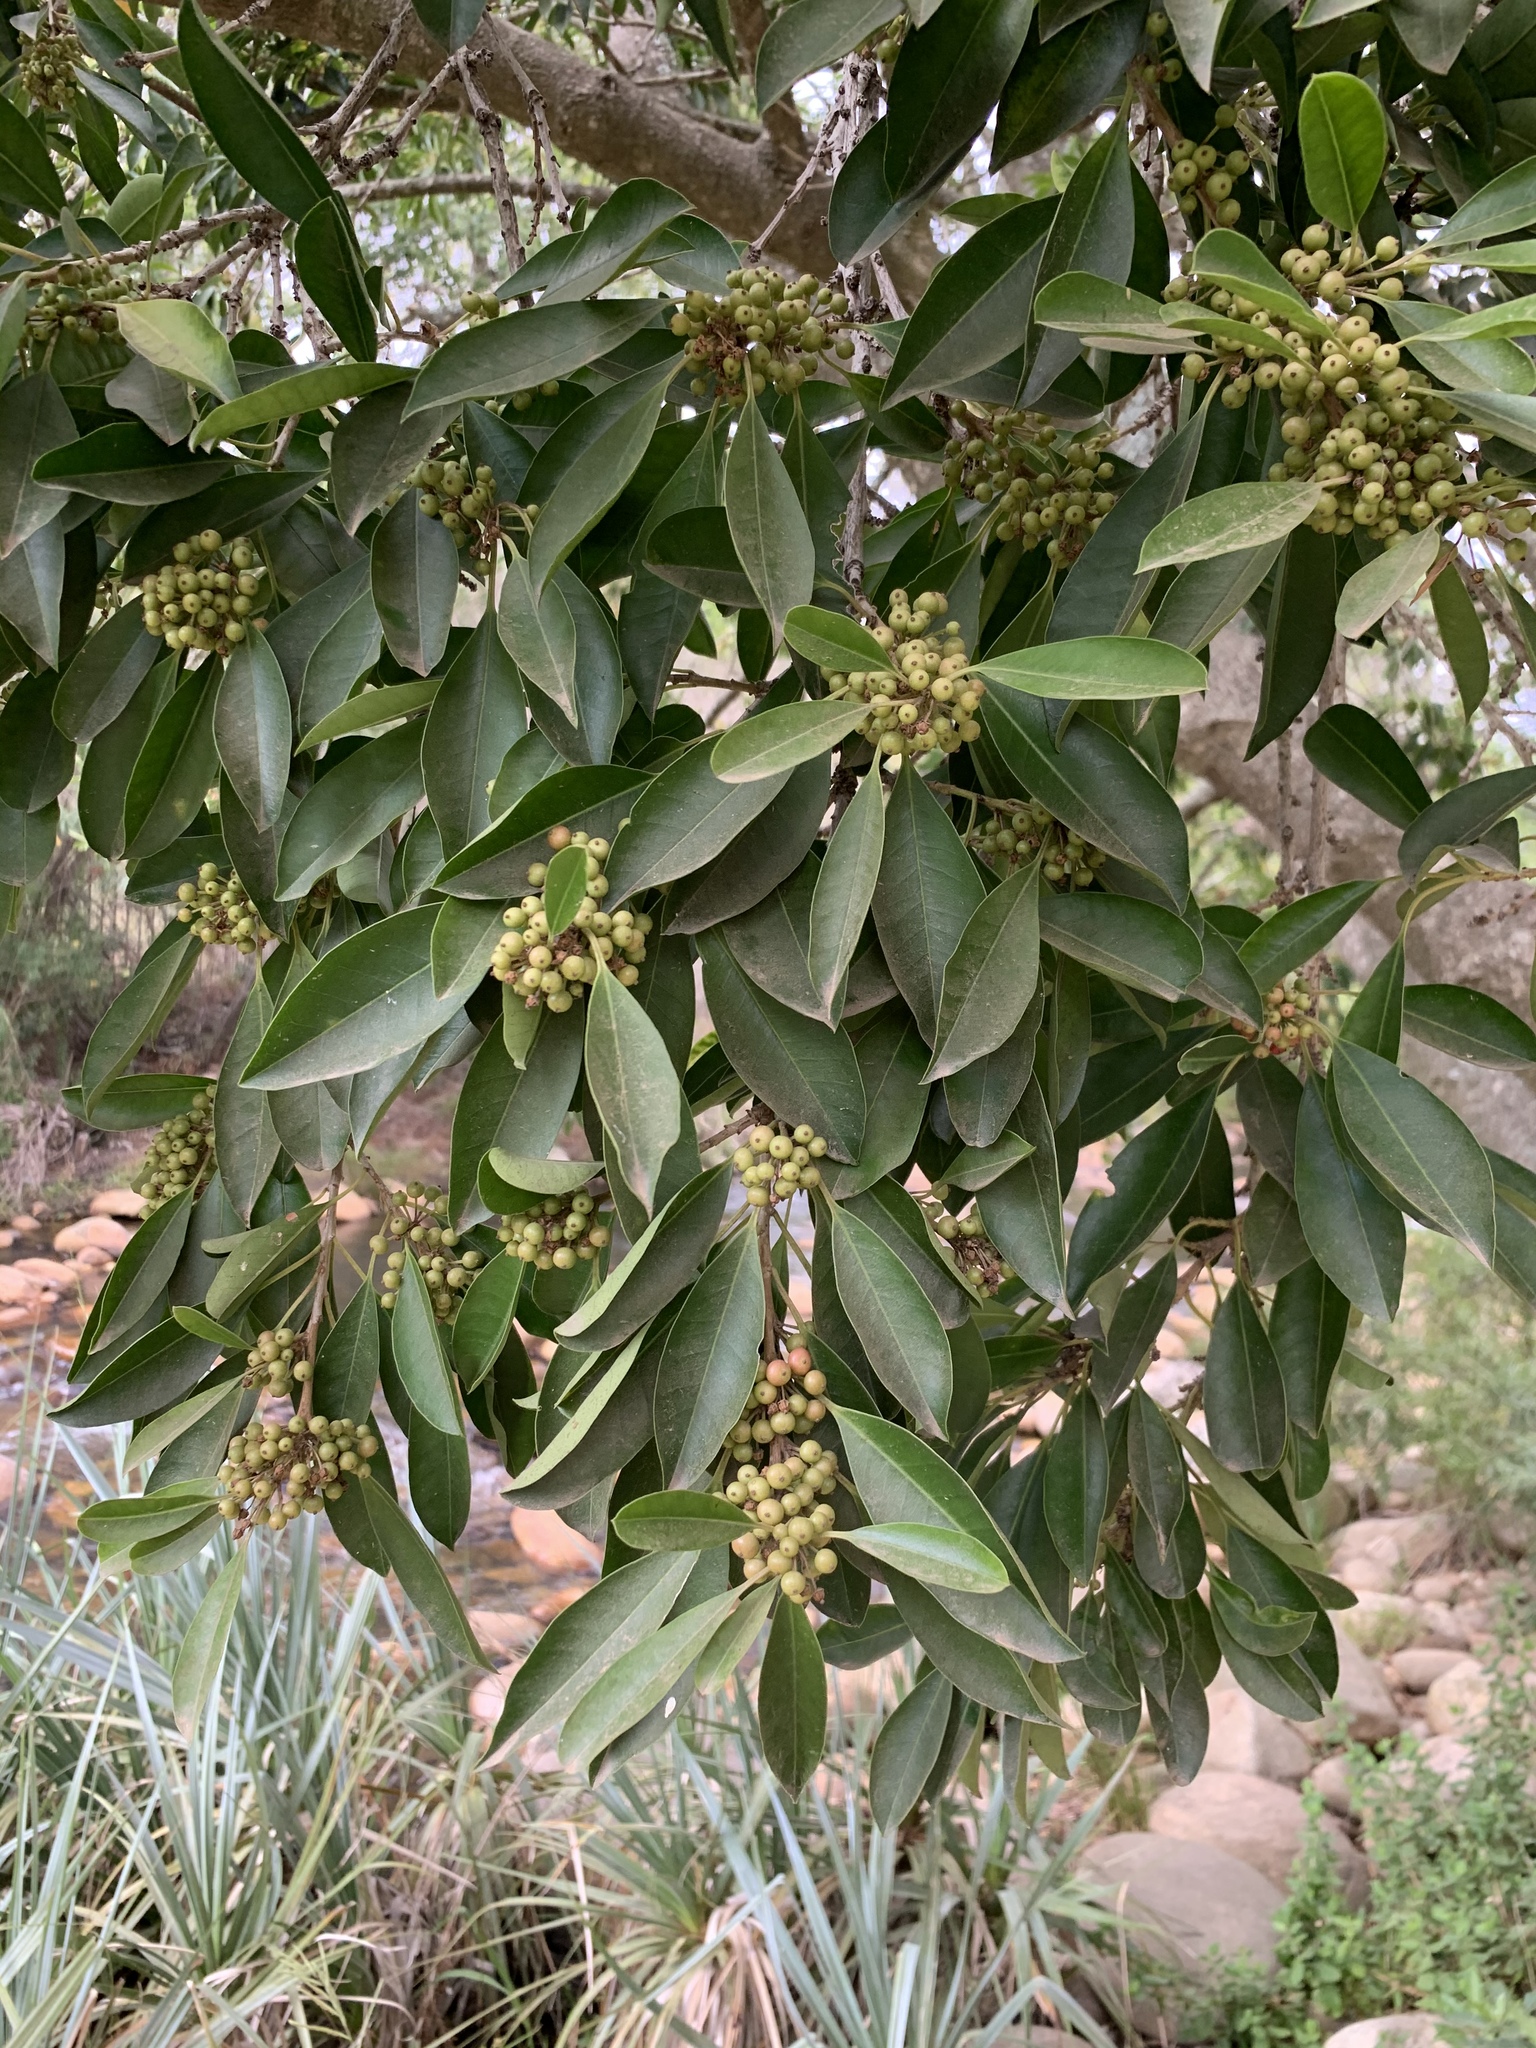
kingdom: Plantae
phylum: Tracheophyta
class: Magnoliopsida
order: Aquifoliales
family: Aquifoliaceae
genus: Ilex
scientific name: Ilex mitis
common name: African holly
